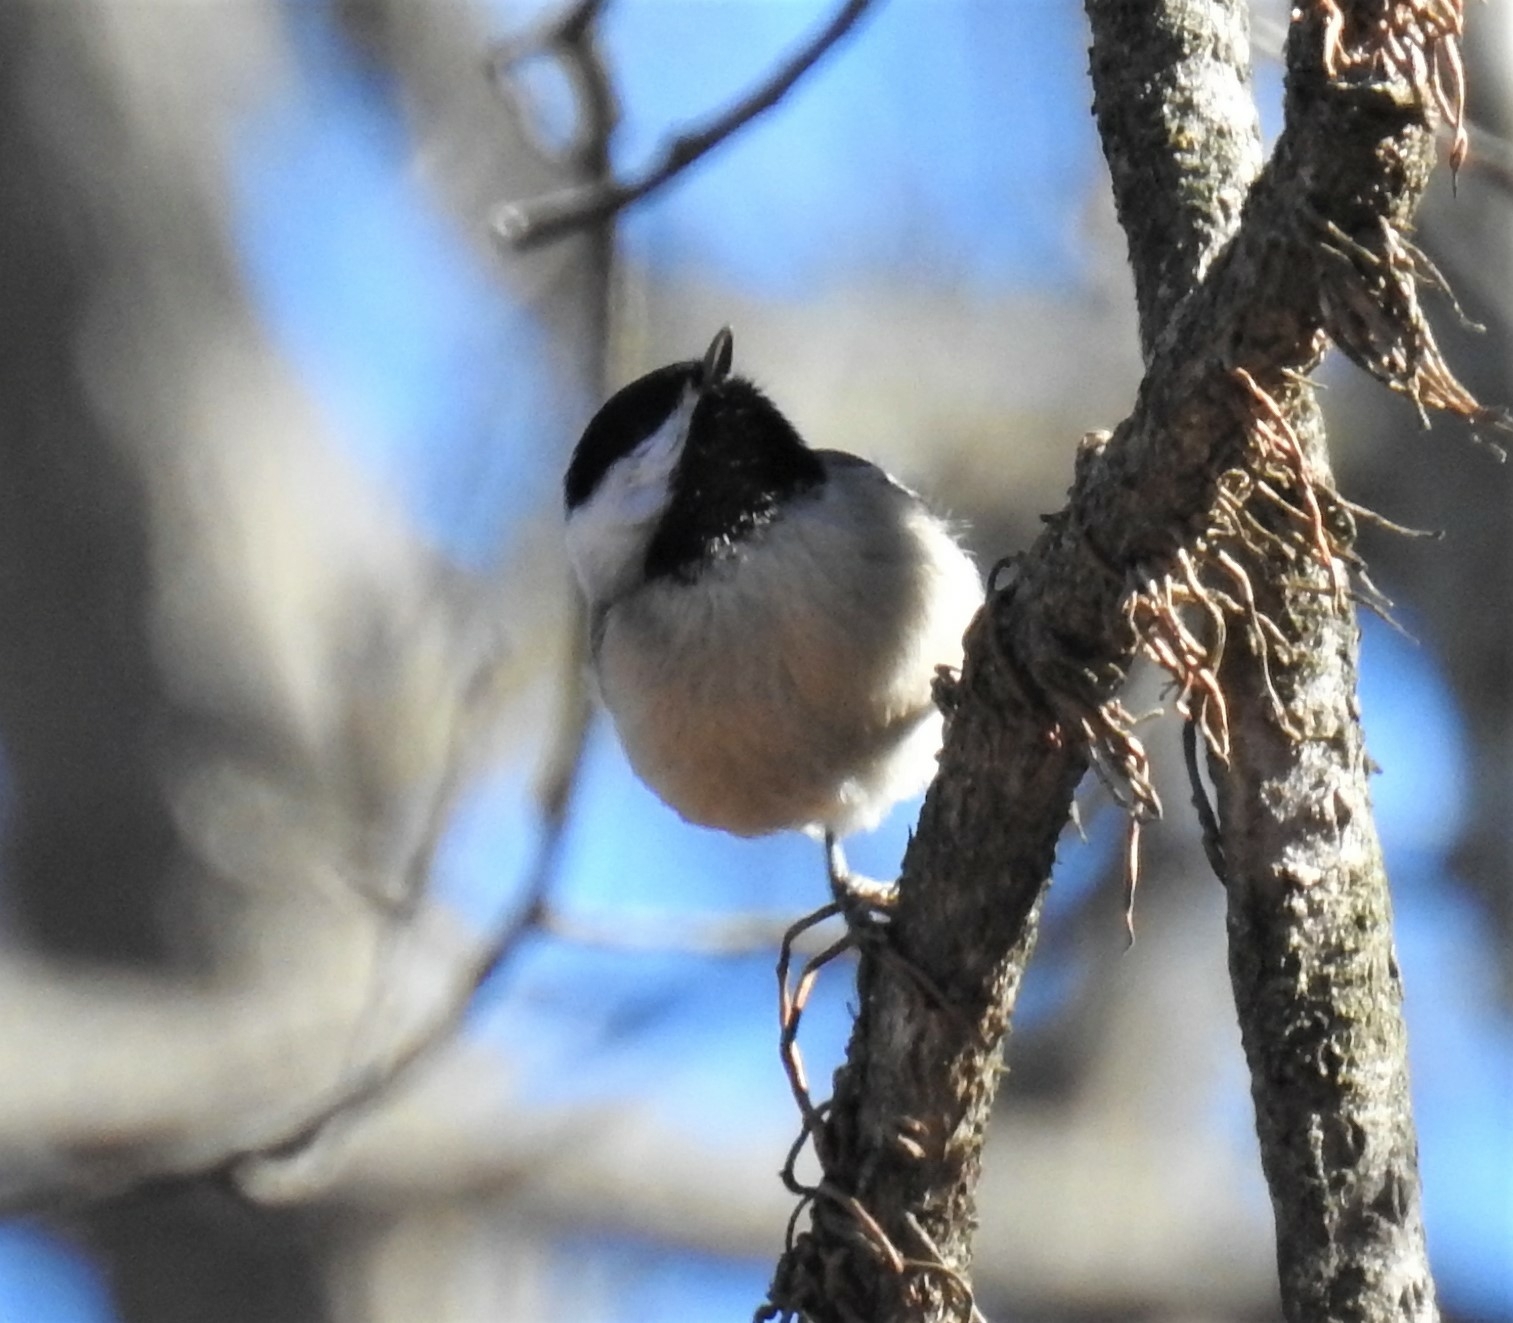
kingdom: Animalia
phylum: Chordata
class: Aves
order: Passeriformes
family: Paridae
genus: Poecile
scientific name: Poecile carolinensis
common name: Carolina chickadee
